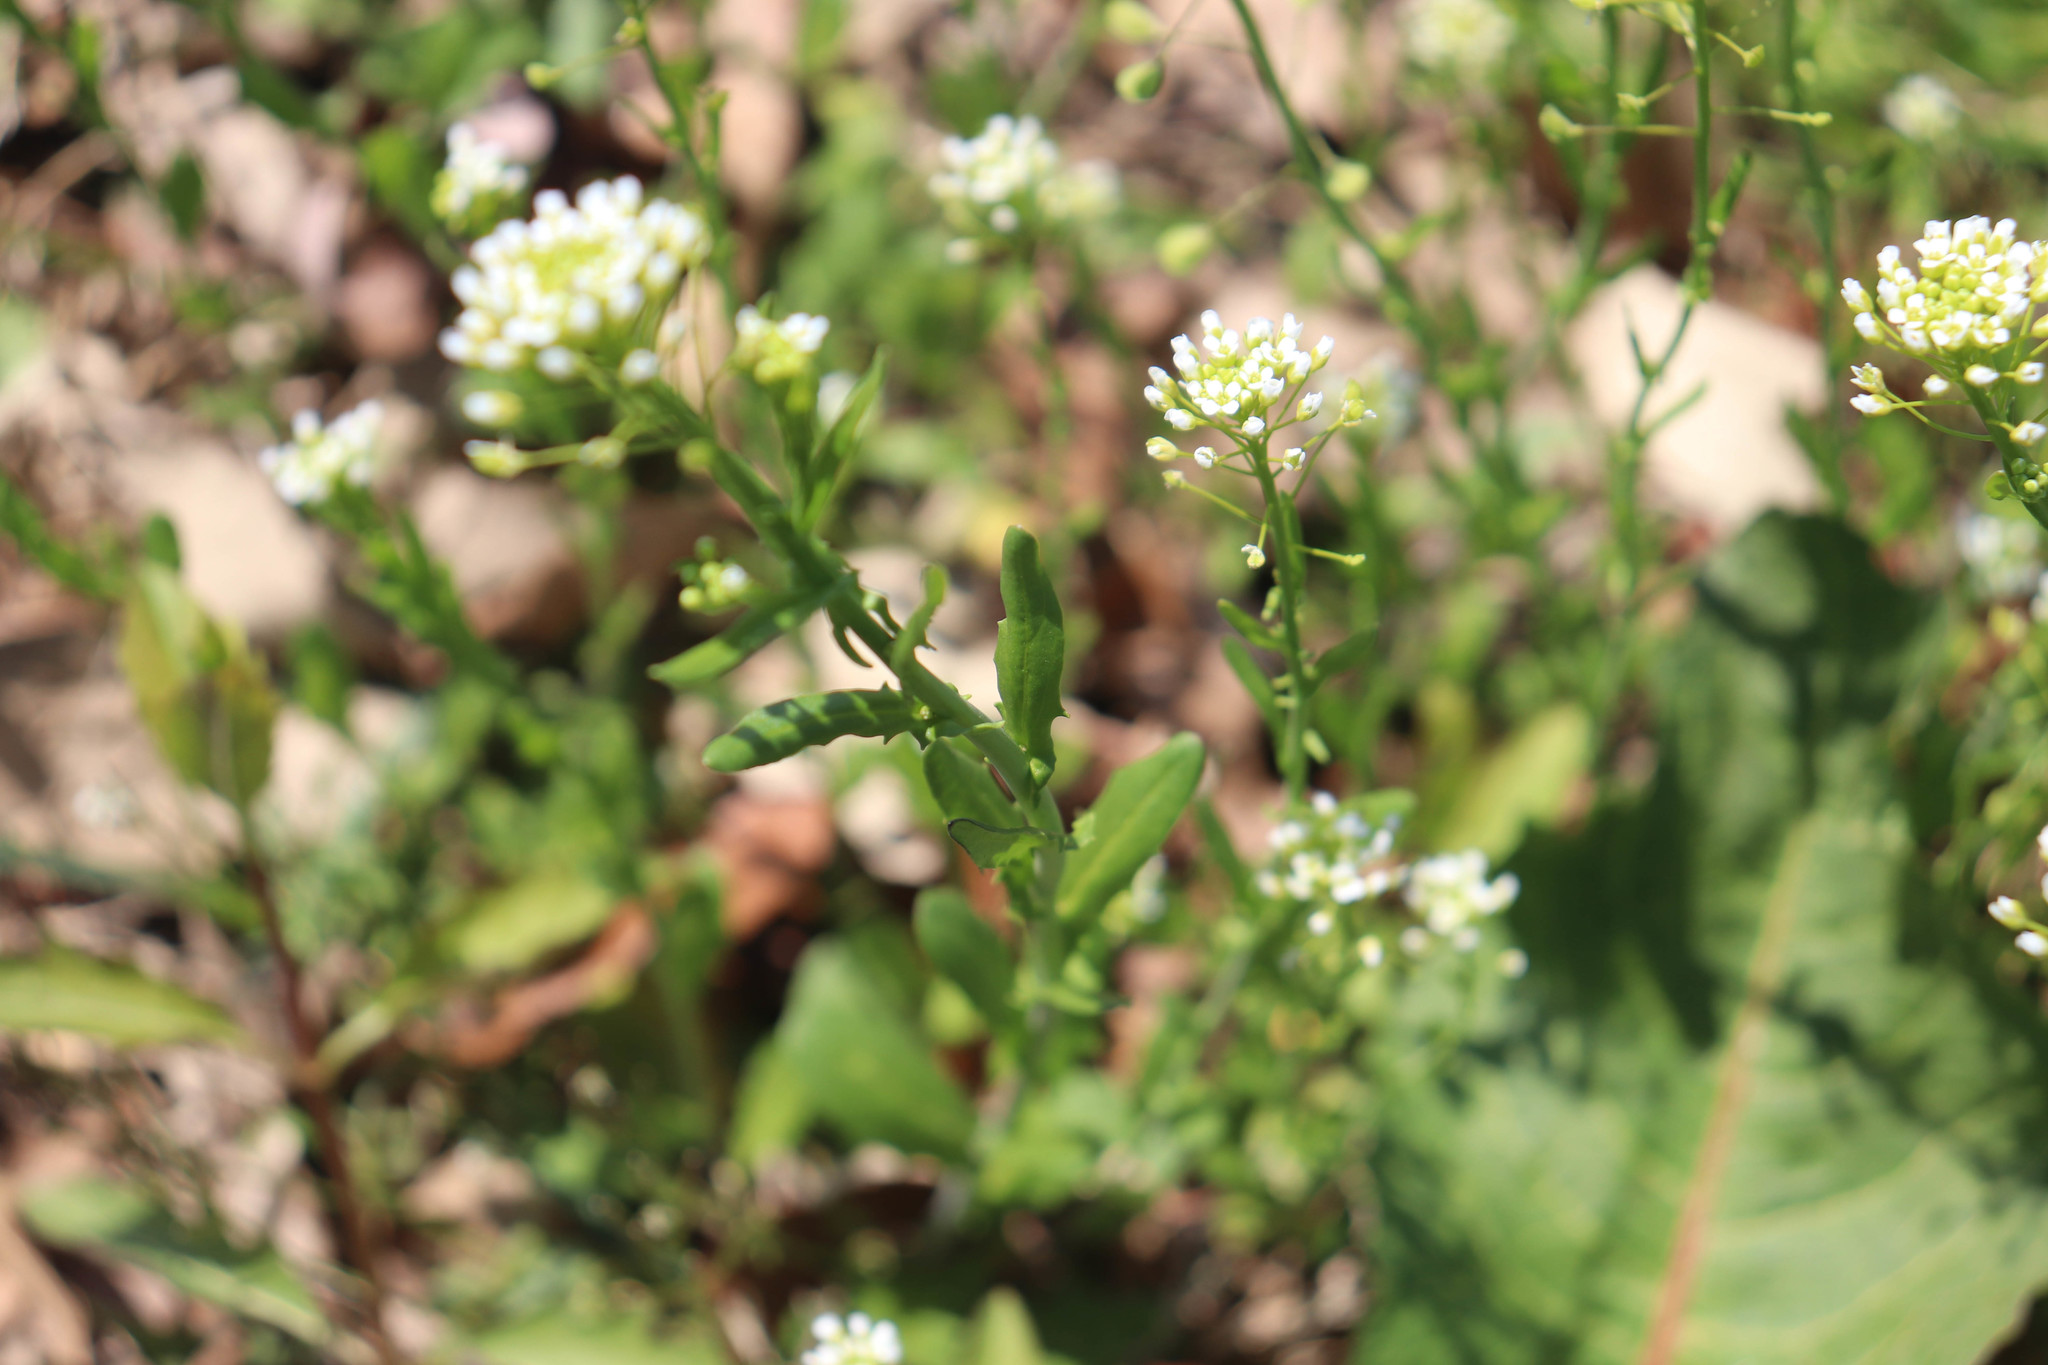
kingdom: Plantae
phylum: Tracheophyta
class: Magnoliopsida
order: Brassicales
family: Brassicaceae
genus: Mummenhoffia
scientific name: Mummenhoffia alliacea
